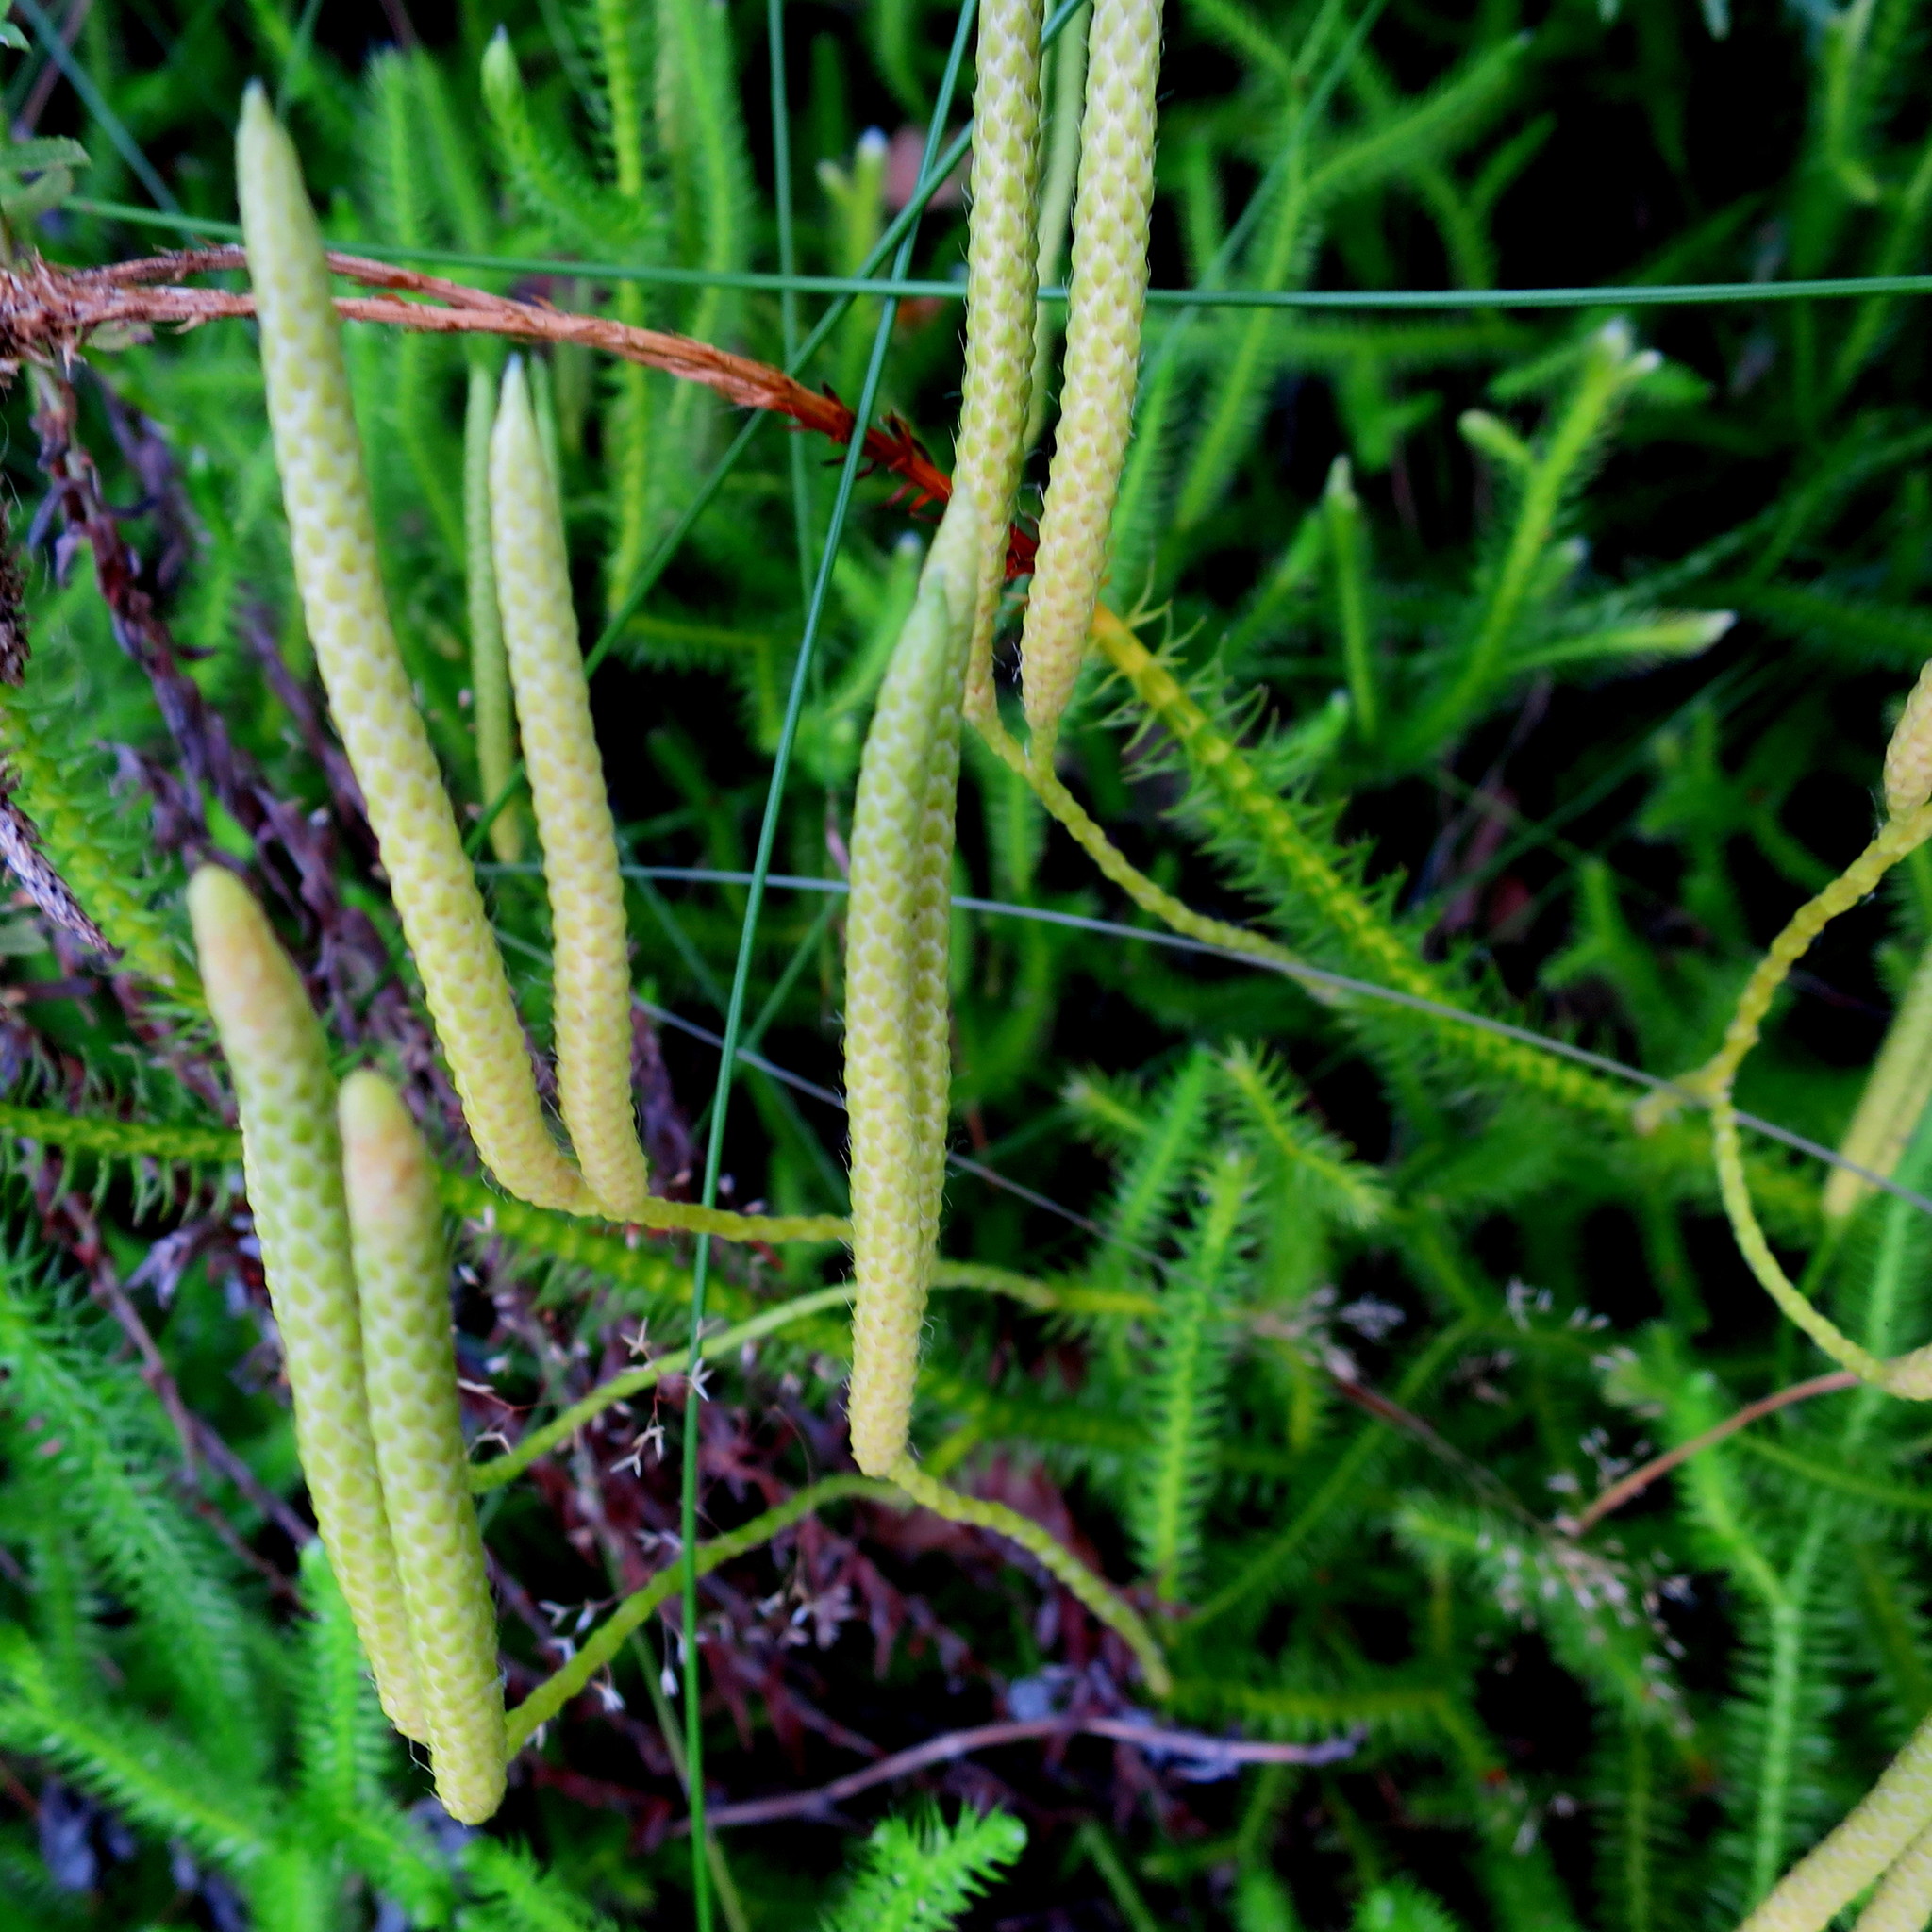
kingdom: Plantae
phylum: Tracheophyta
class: Lycopodiopsida
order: Lycopodiales
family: Lycopodiaceae
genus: Lycopodium
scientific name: Lycopodium clavatum
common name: Stag's-horn clubmoss
